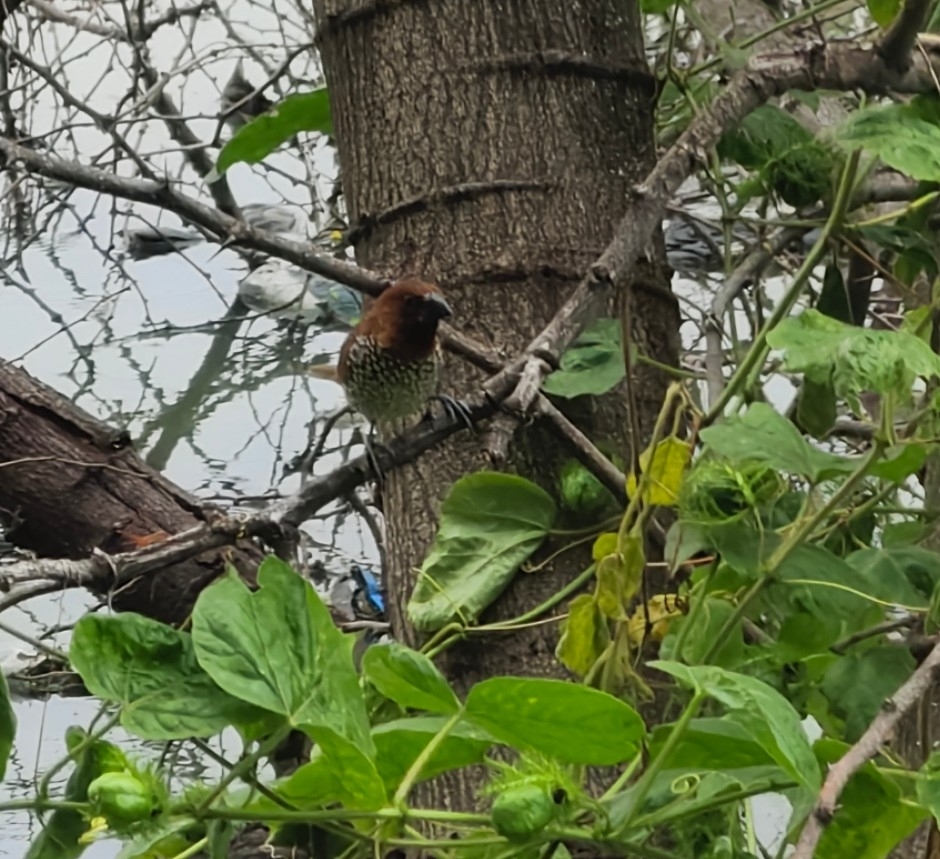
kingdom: Animalia
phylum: Chordata
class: Aves
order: Passeriformes
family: Estrildidae
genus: Lonchura
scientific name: Lonchura punctulata
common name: Scaly-breasted munia
